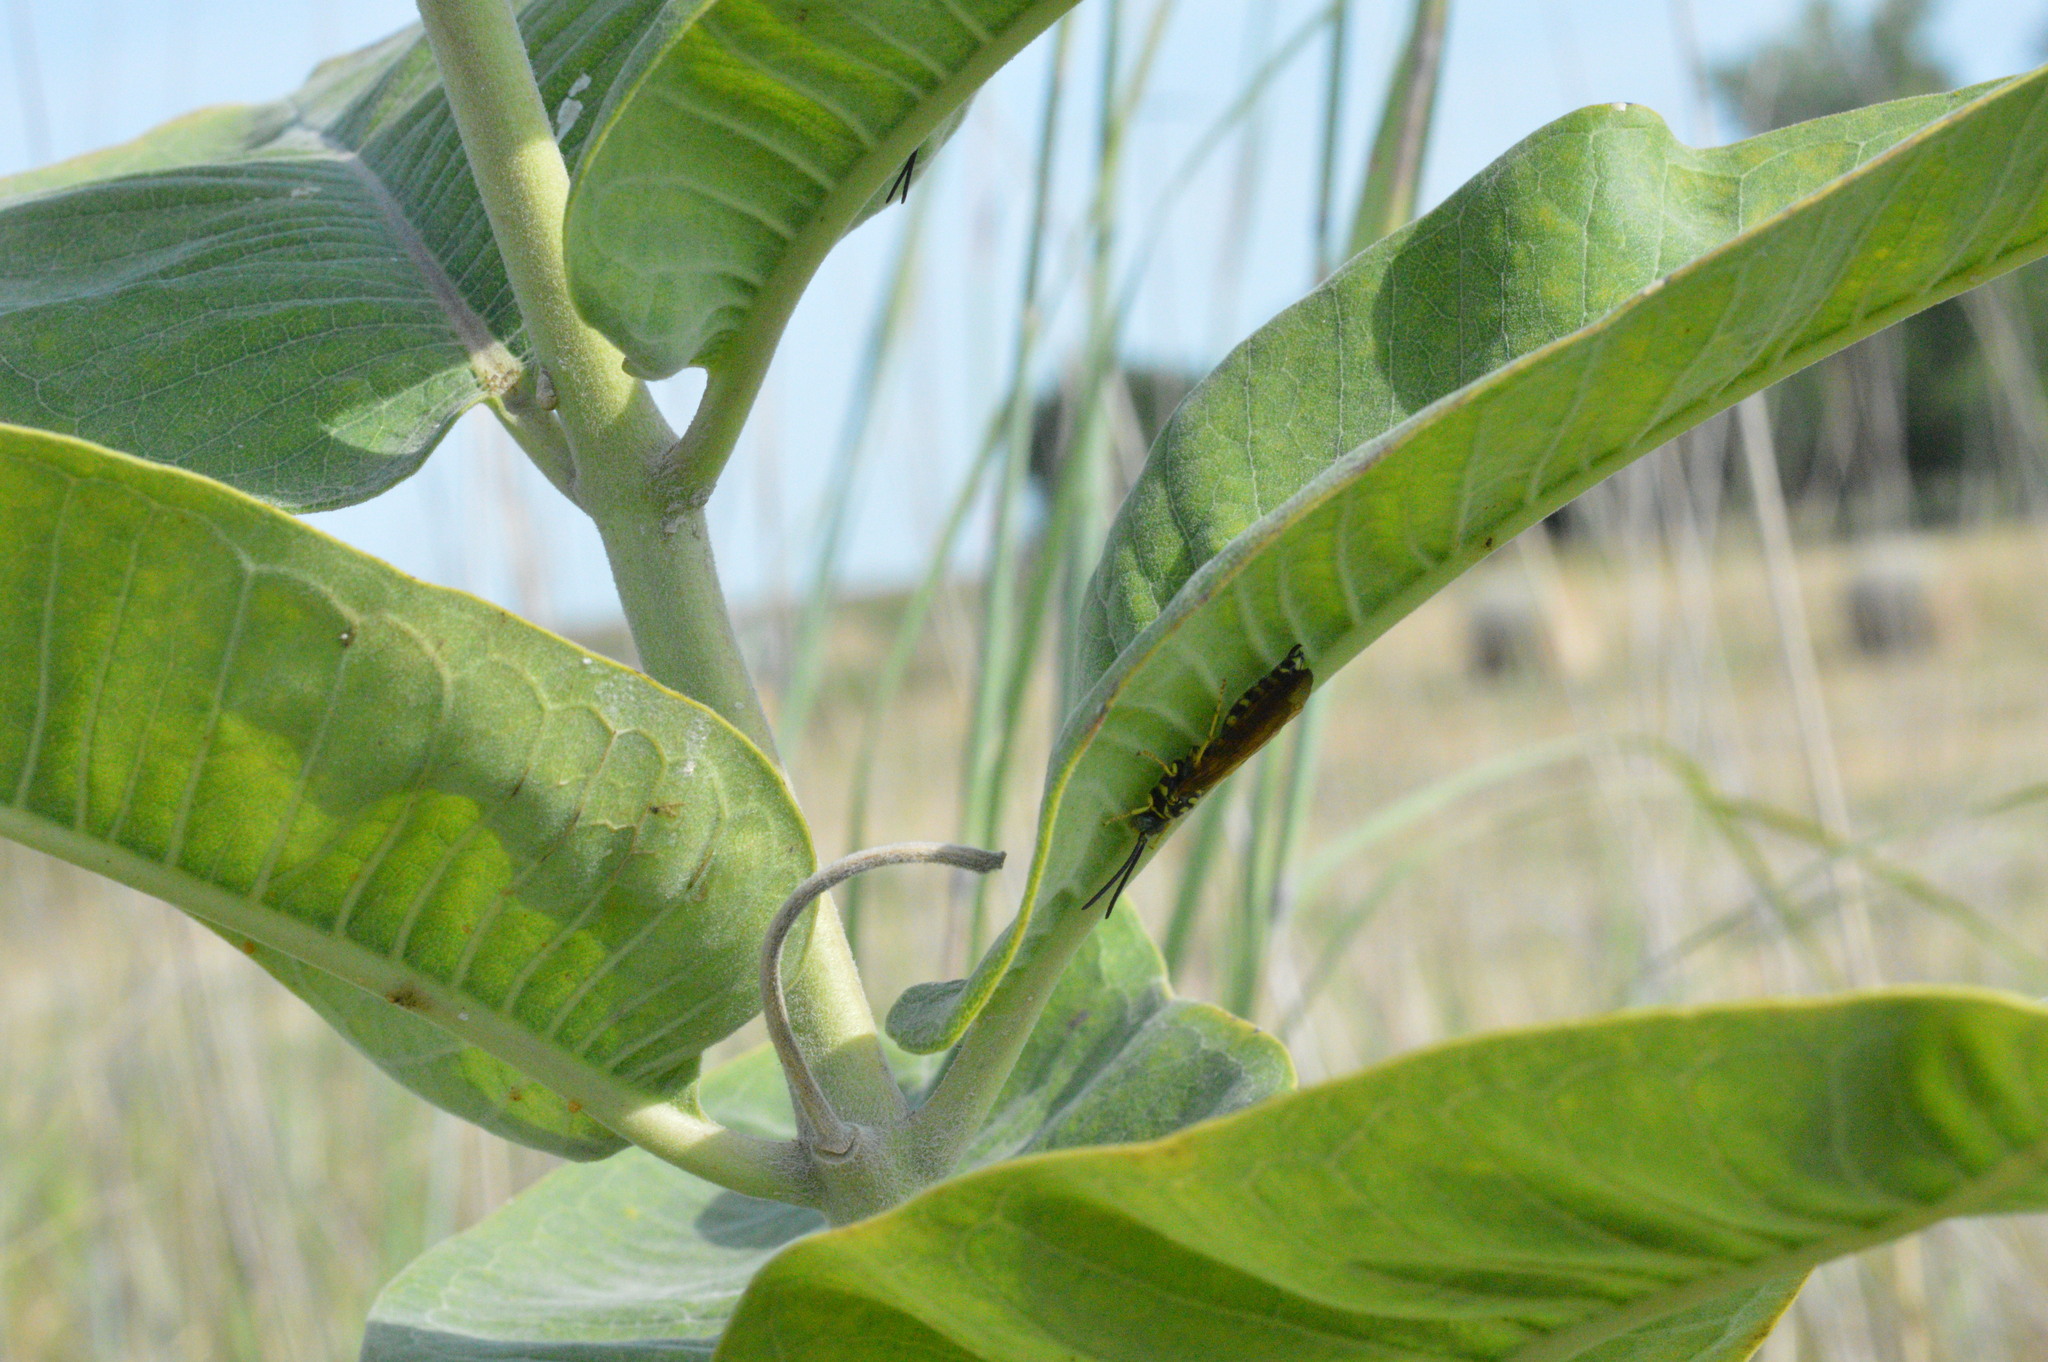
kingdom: Animalia
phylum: Arthropoda
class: Insecta
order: Hymenoptera
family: Tiphiidae
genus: Myzinum
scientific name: Myzinum quinquecinctum
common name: Five-banded thynnid wasp
